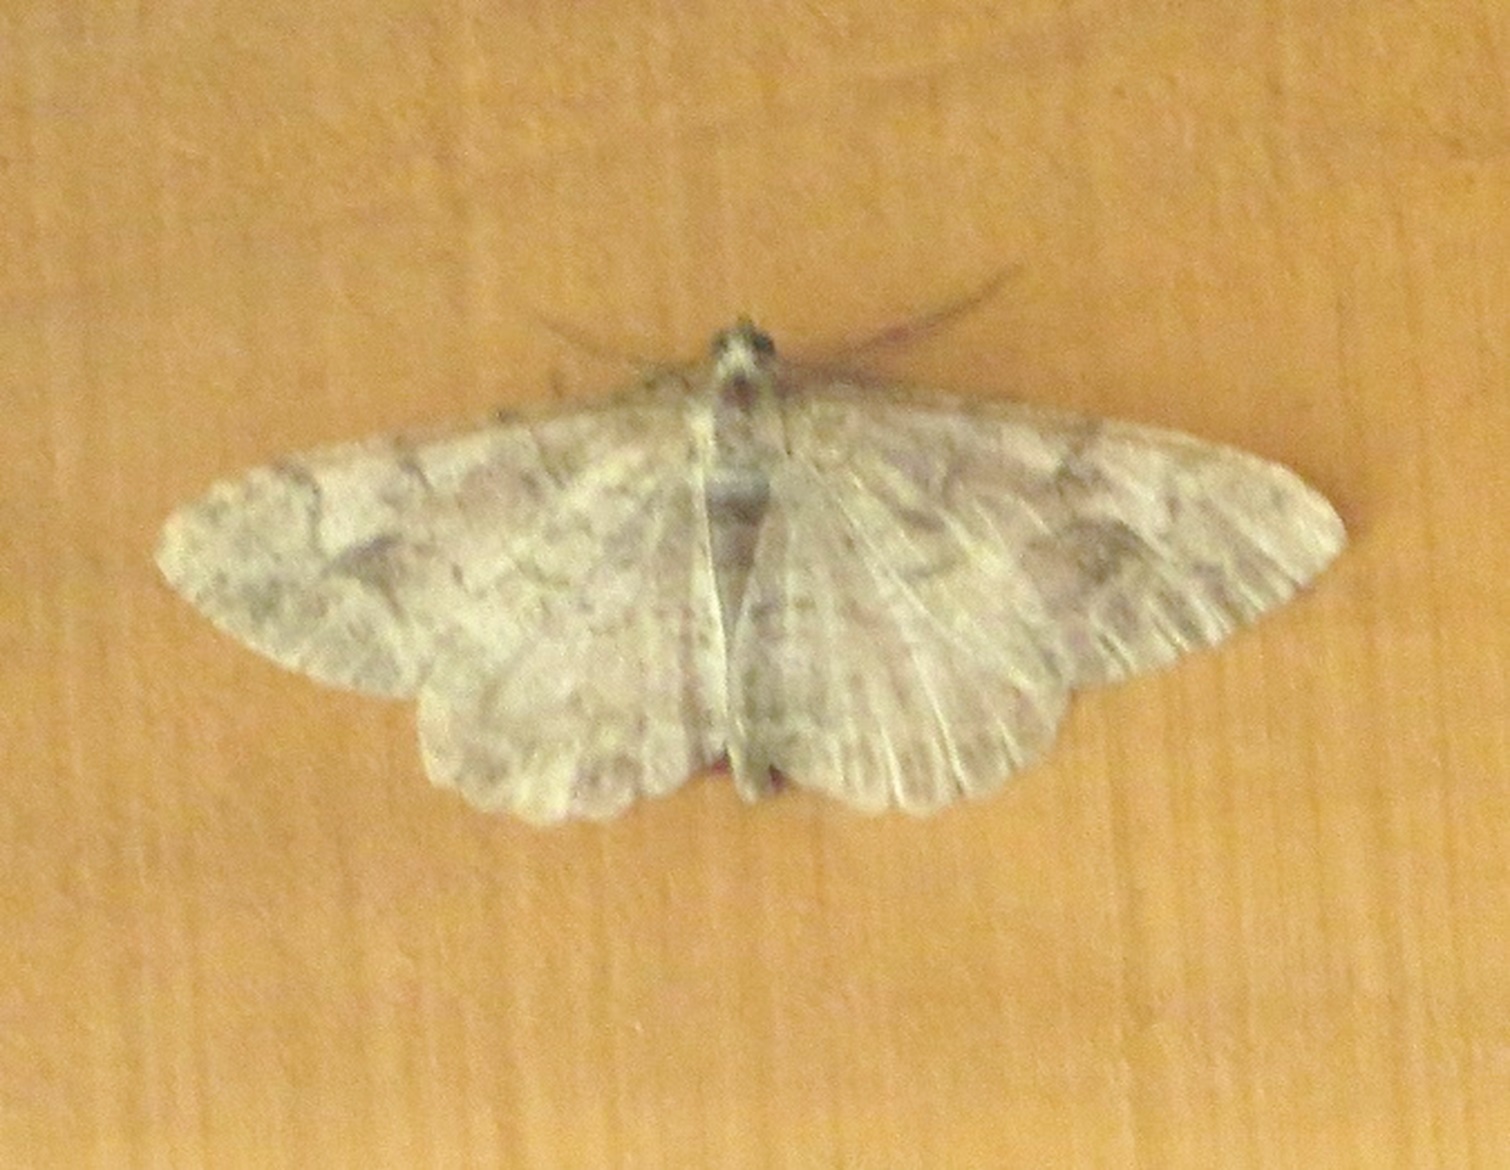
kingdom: Animalia
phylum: Arthropoda
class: Insecta
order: Lepidoptera
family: Geometridae
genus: Alcis
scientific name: Alcis repandata
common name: Mottled beauty
